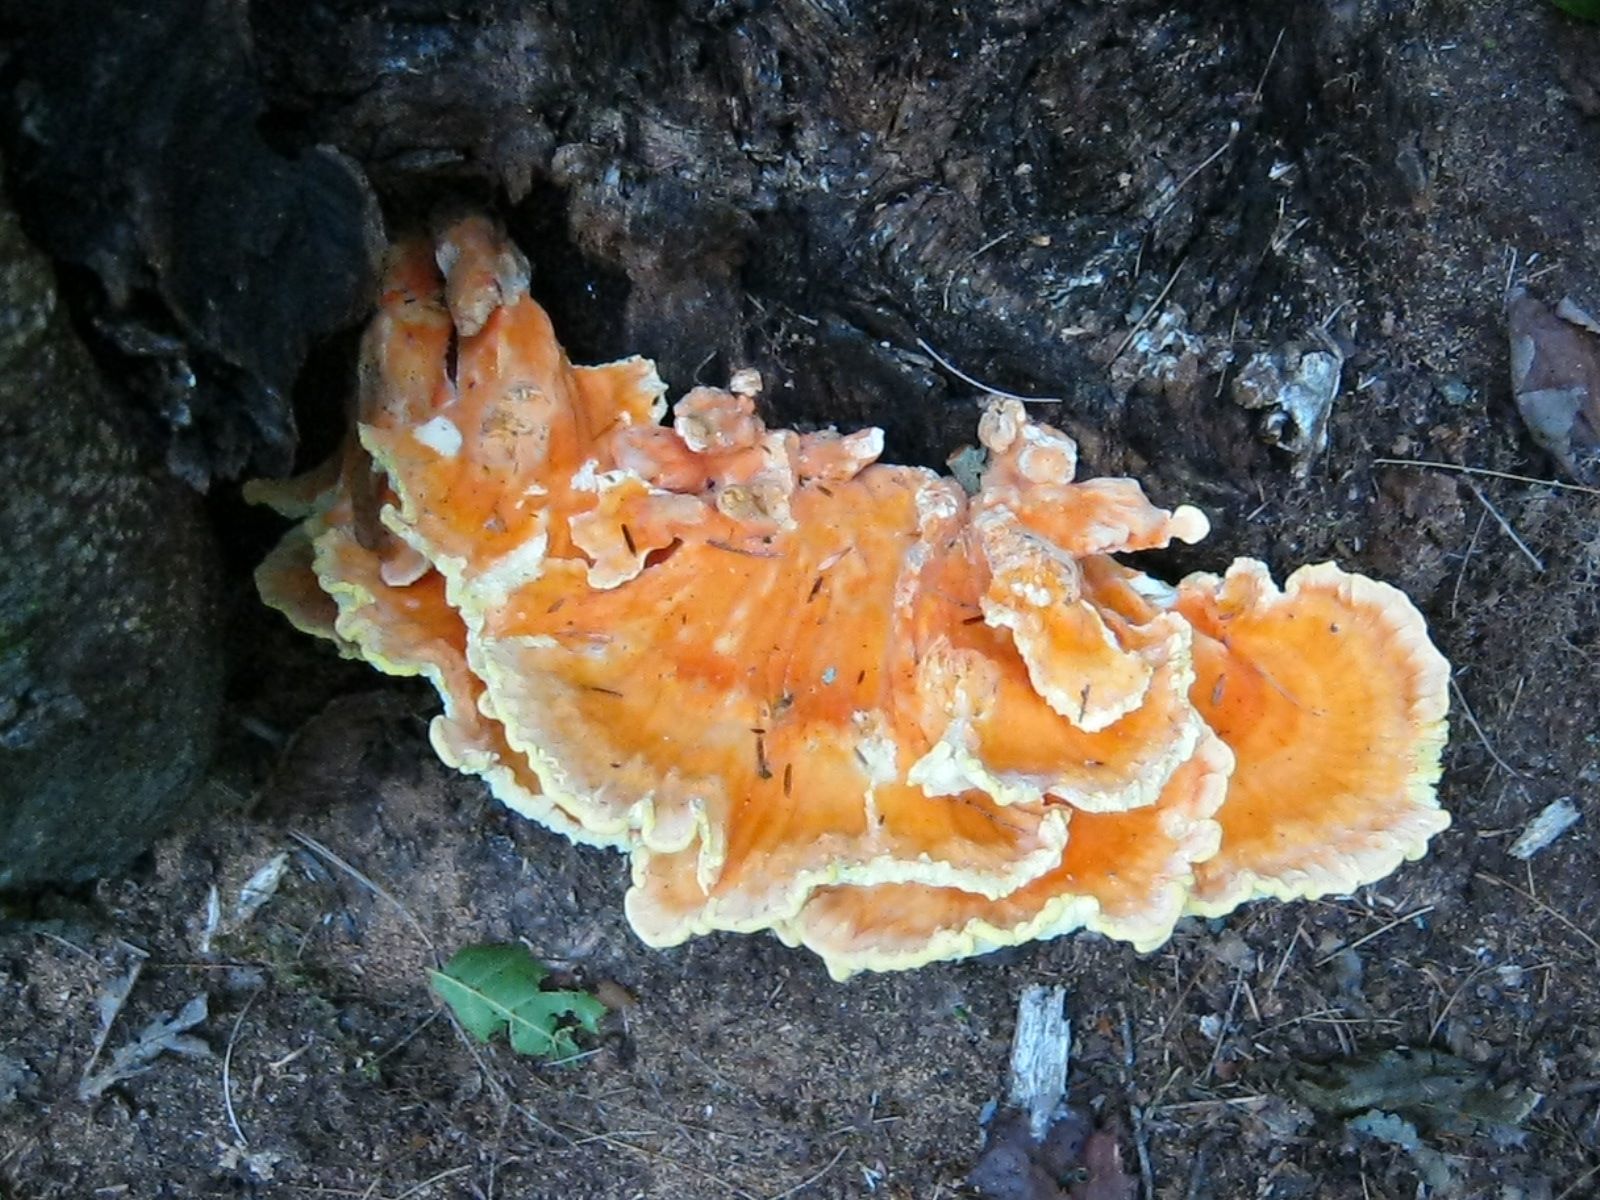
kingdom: Fungi
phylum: Basidiomycota
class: Agaricomycetes
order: Polyporales
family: Laetiporaceae
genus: Laetiporus
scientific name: Laetiporus sulphureus
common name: Chicken of the woods
